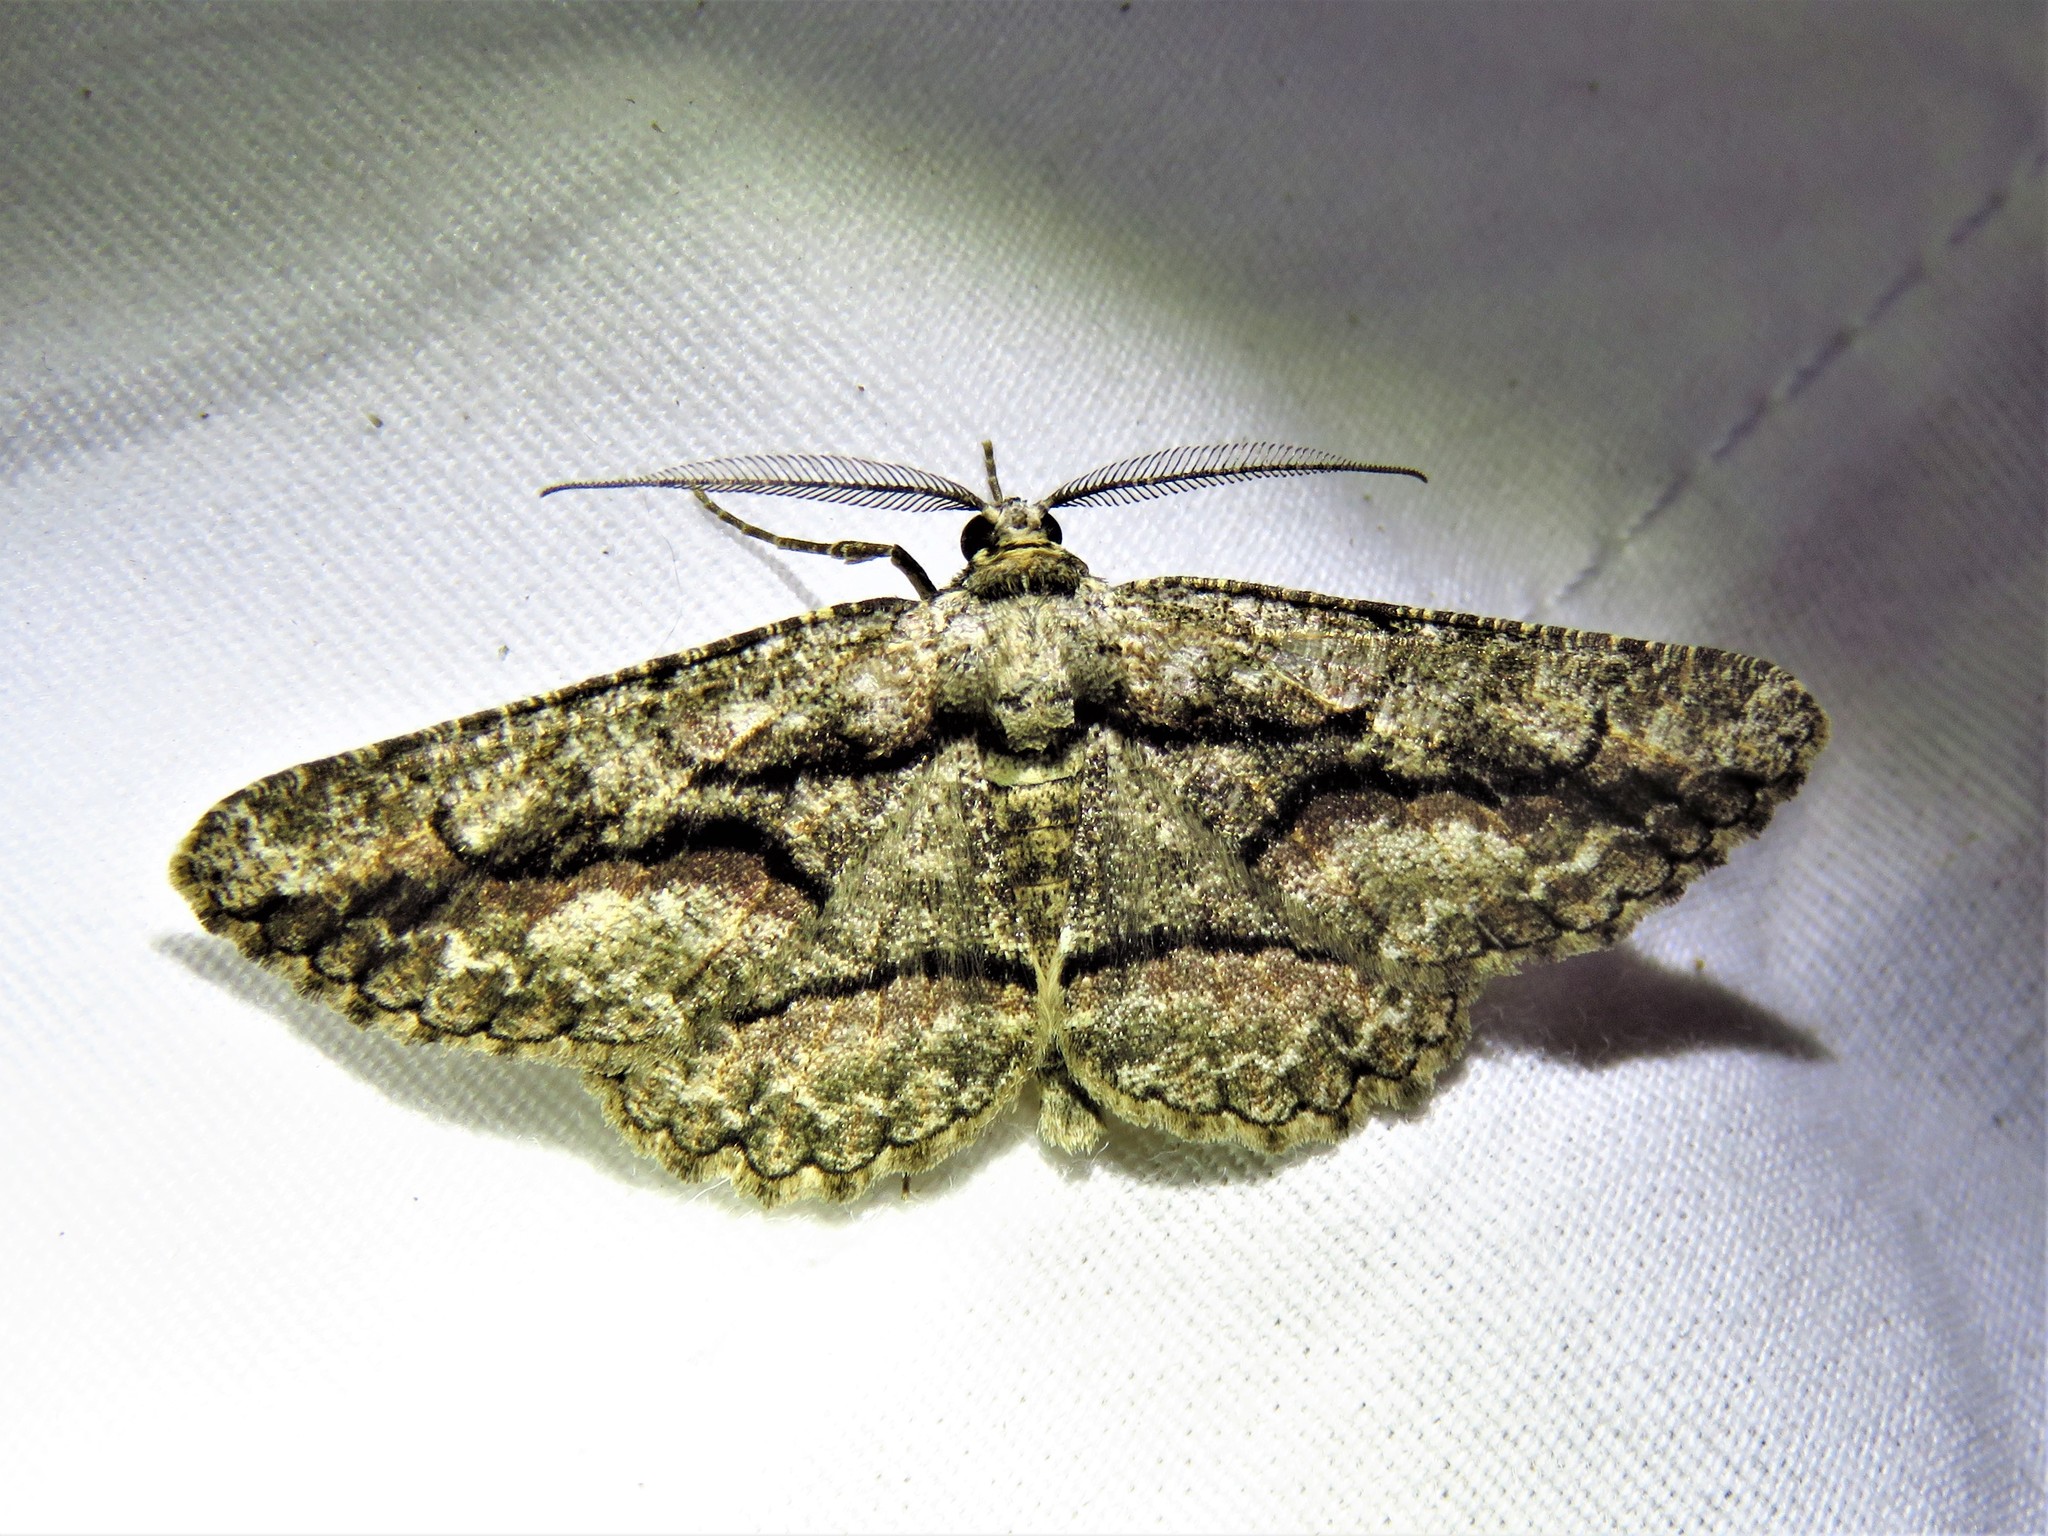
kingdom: Animalia
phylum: Arthropoda
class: Insecta
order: Lepidoptera
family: Geometridae
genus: Anavitrinella
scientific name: Anavitrinella atristrigaria
